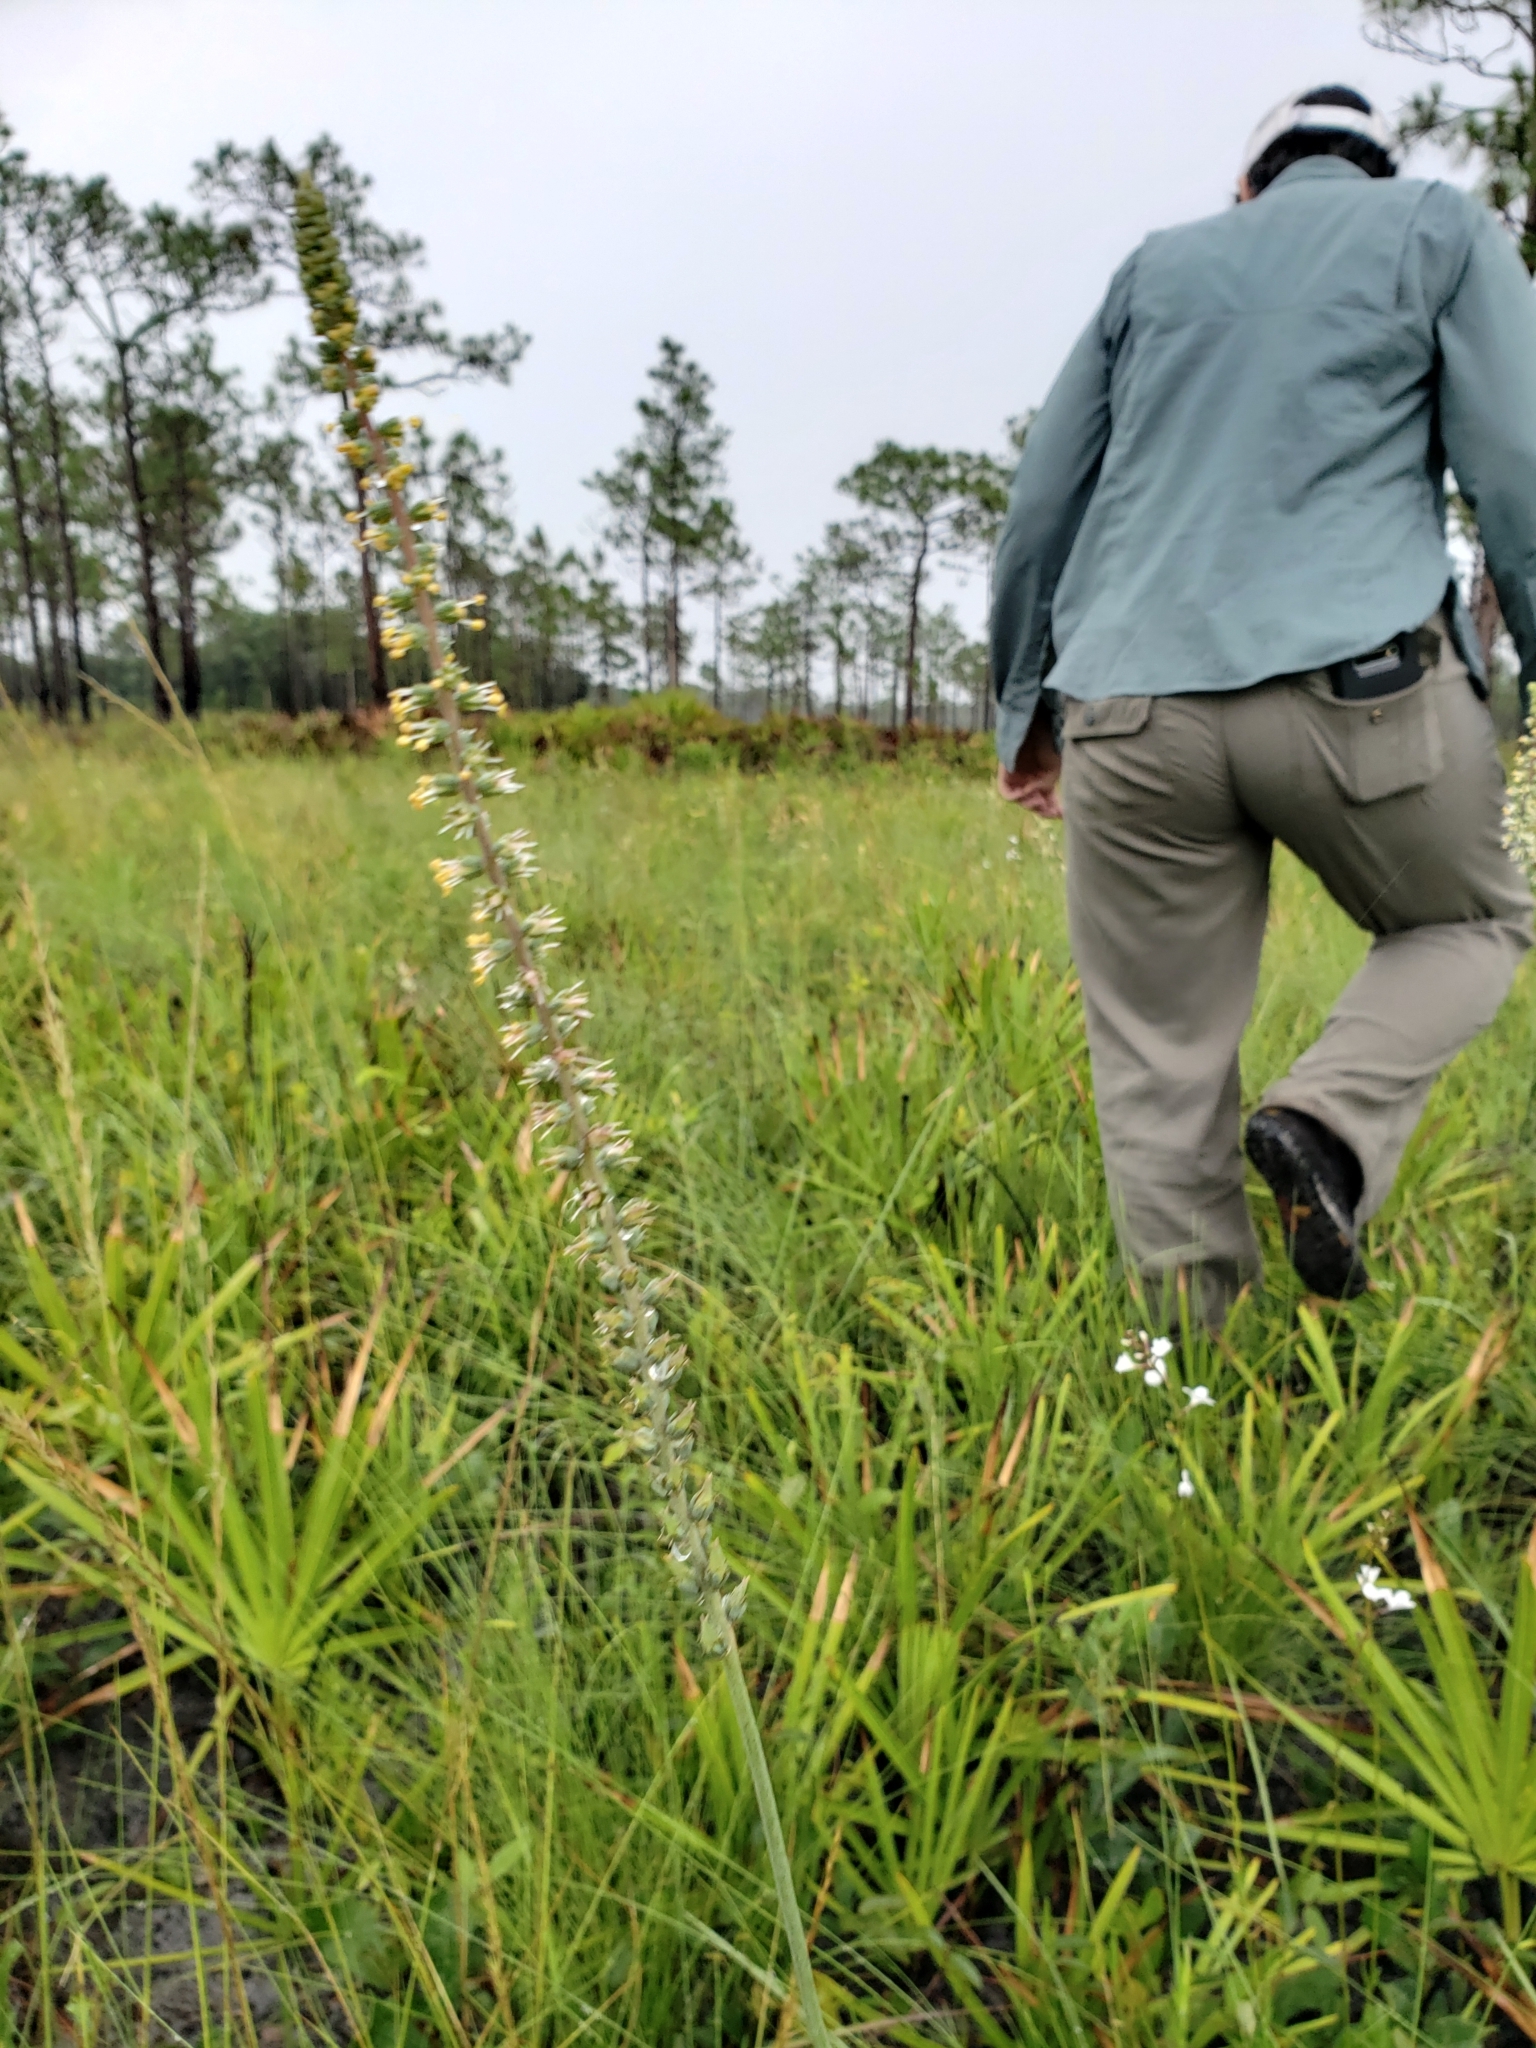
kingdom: Plantae
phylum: Tracheophyta
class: Liliopsida
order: Liliales
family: Melanthiaceae
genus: Schoenocaulon
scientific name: Schoenocaulon dubium
